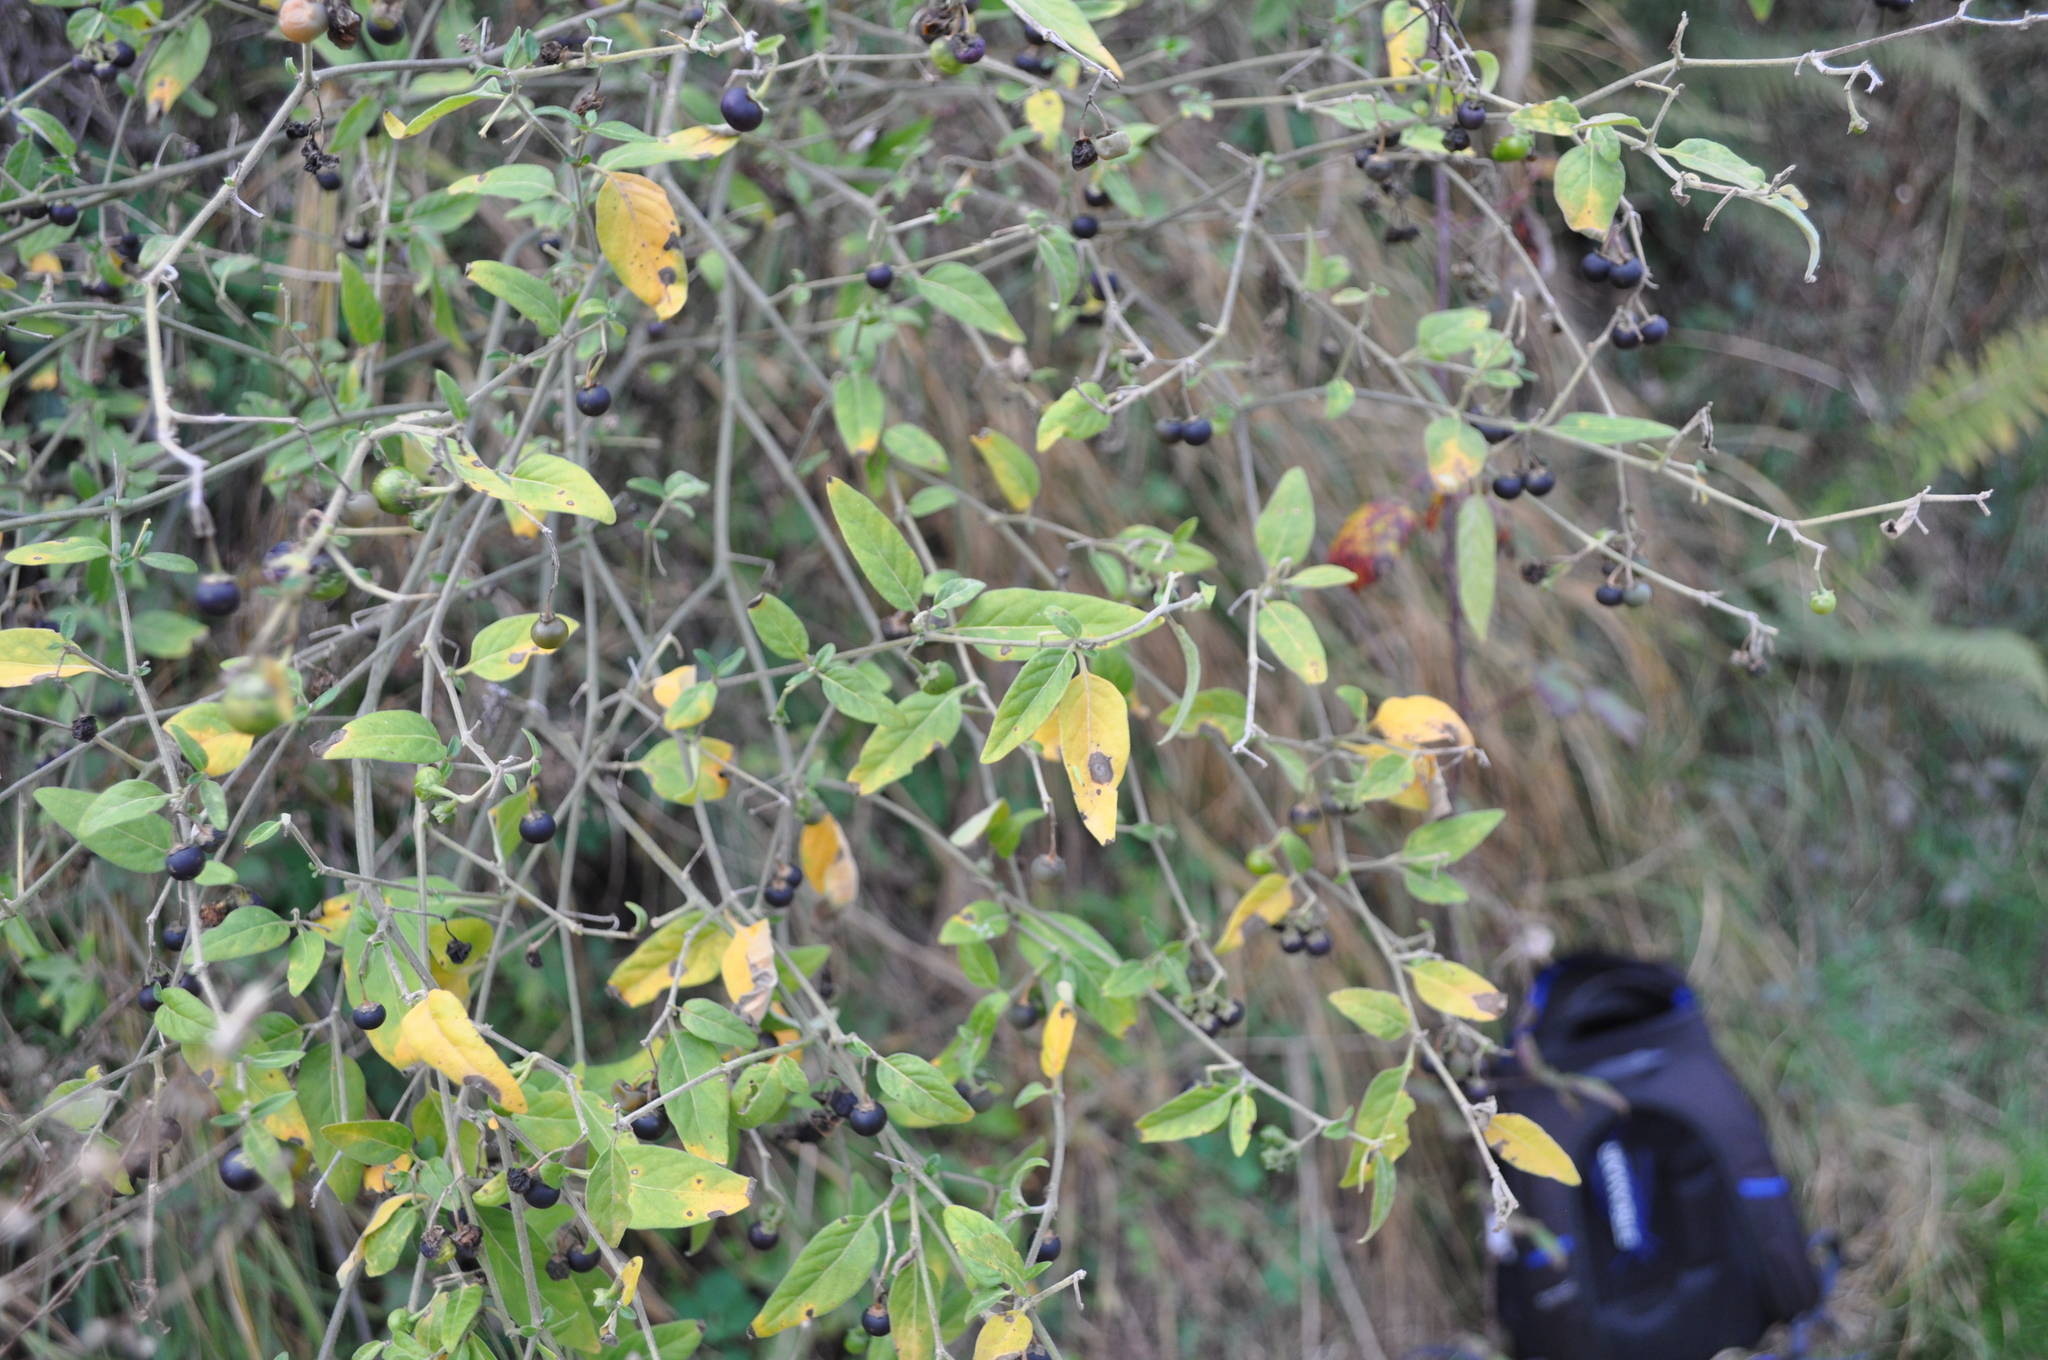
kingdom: Plantae
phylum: Tracheophyta
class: Magnoliopsida
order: Solanales
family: Solanaceae
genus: Solanum
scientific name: Solanum chenopodioides
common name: Tall nightshade
